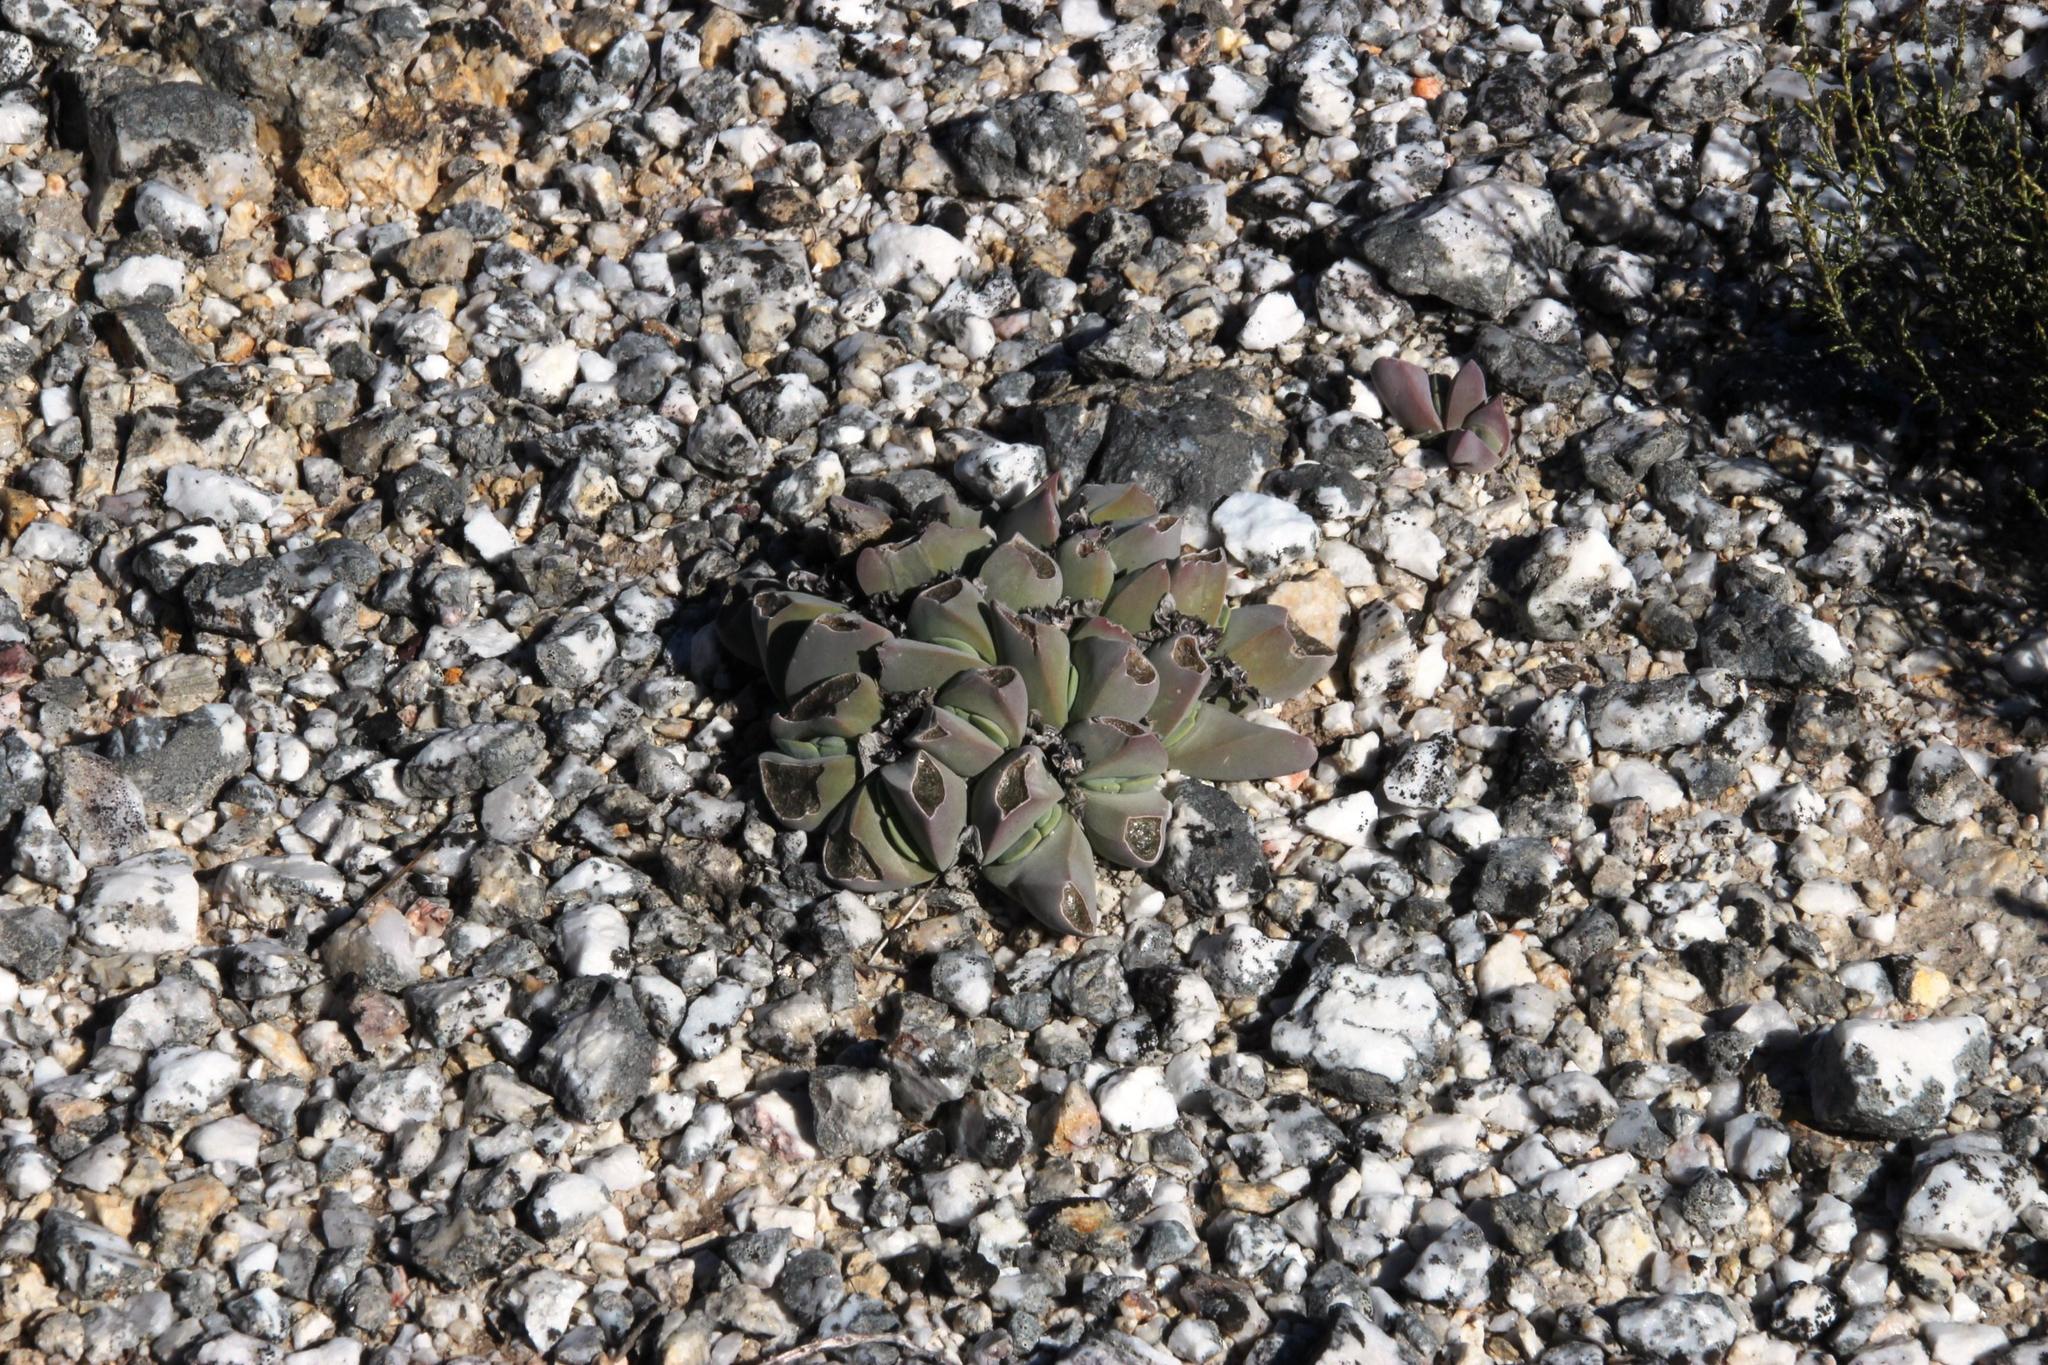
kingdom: Plantae
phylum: Tracheophyta
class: Magnoliopsida
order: Caryophyllales
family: Aizoaceae
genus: Gibbaeum
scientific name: Gibbaeum hartmannianum
